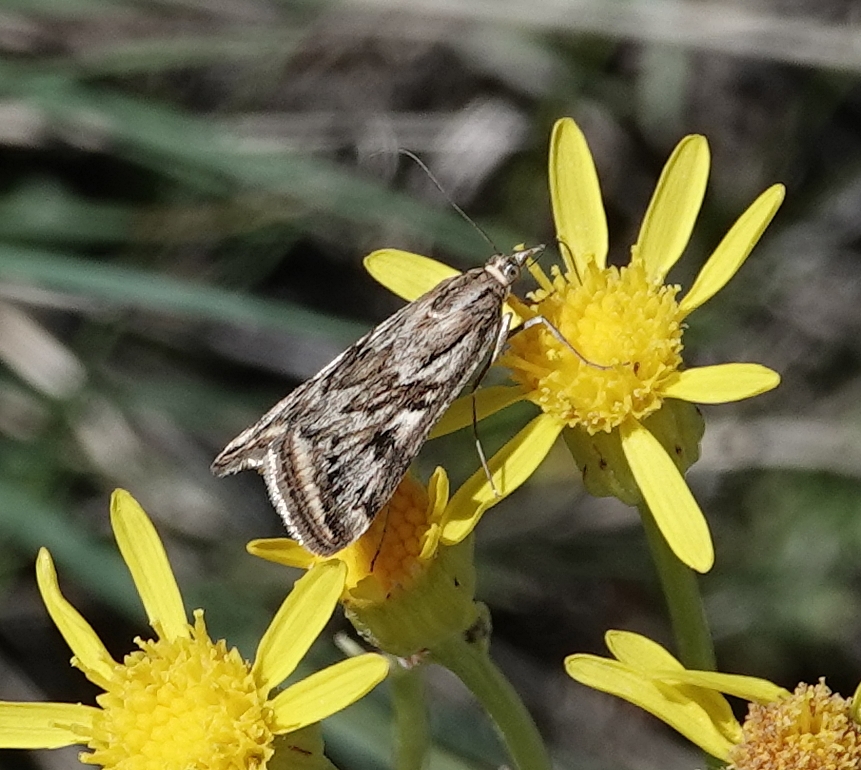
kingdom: Animalia
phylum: Arthropoda
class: Insecta
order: Lepidoptera
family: Crambidae
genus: Loxostege
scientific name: Loxostege cereralis
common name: Alfalfa webworm moth
